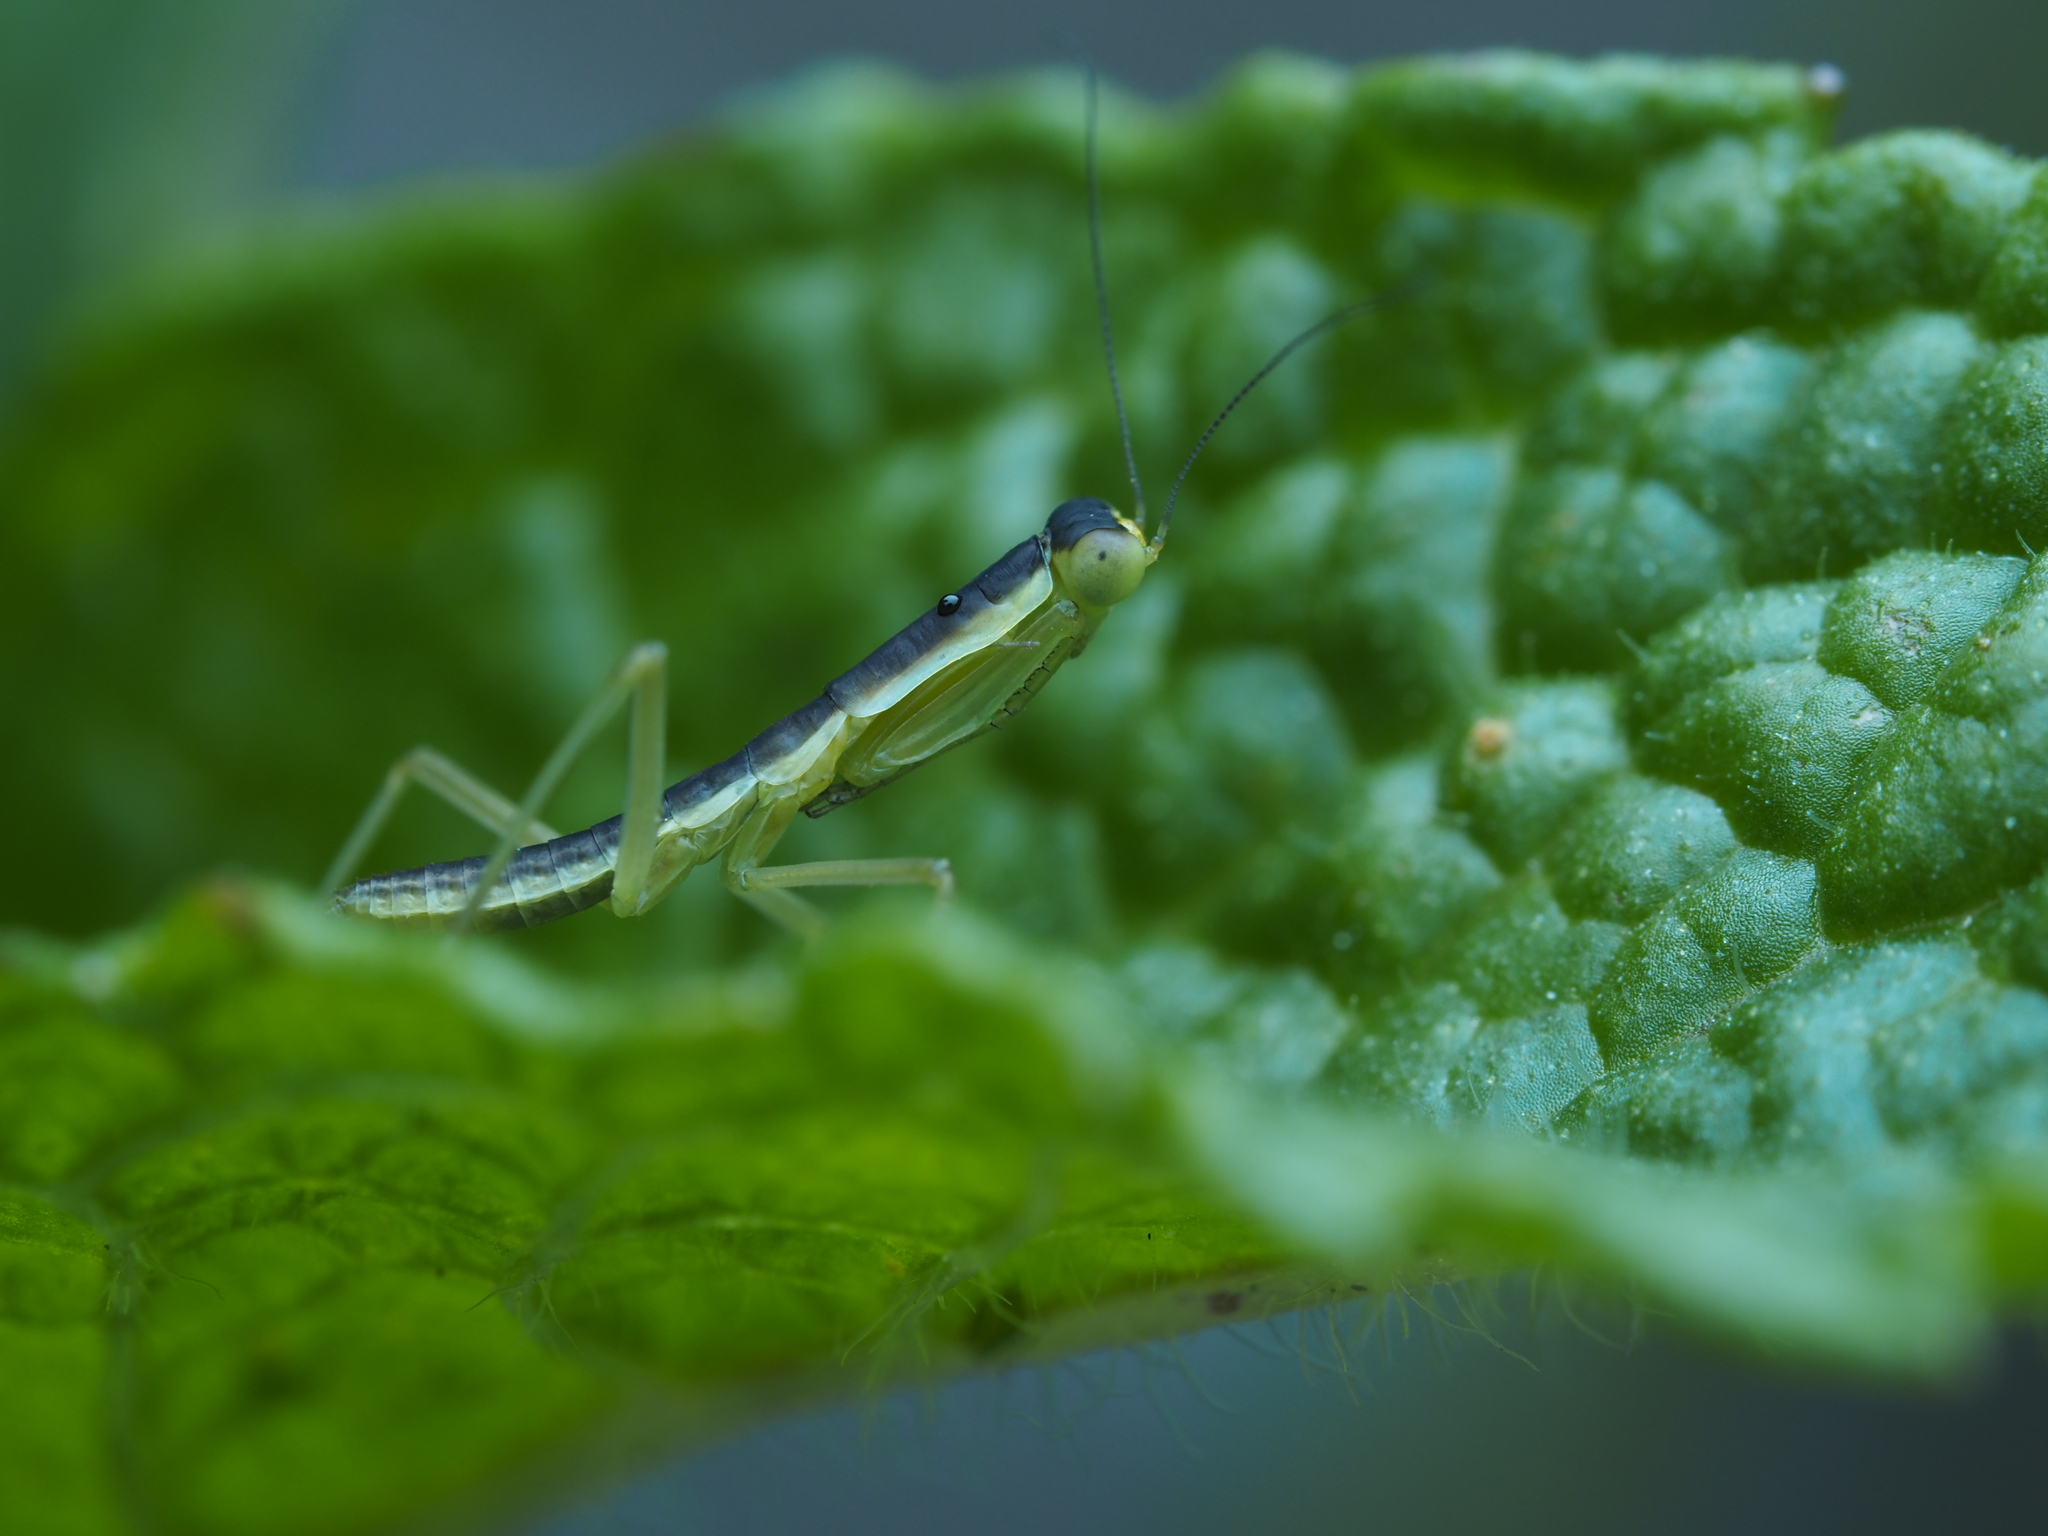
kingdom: Animalia
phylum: Arthropoda
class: Insecta
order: Mantodea
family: Mantidae
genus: Orthodera
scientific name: Orthodera novaezealandiae
